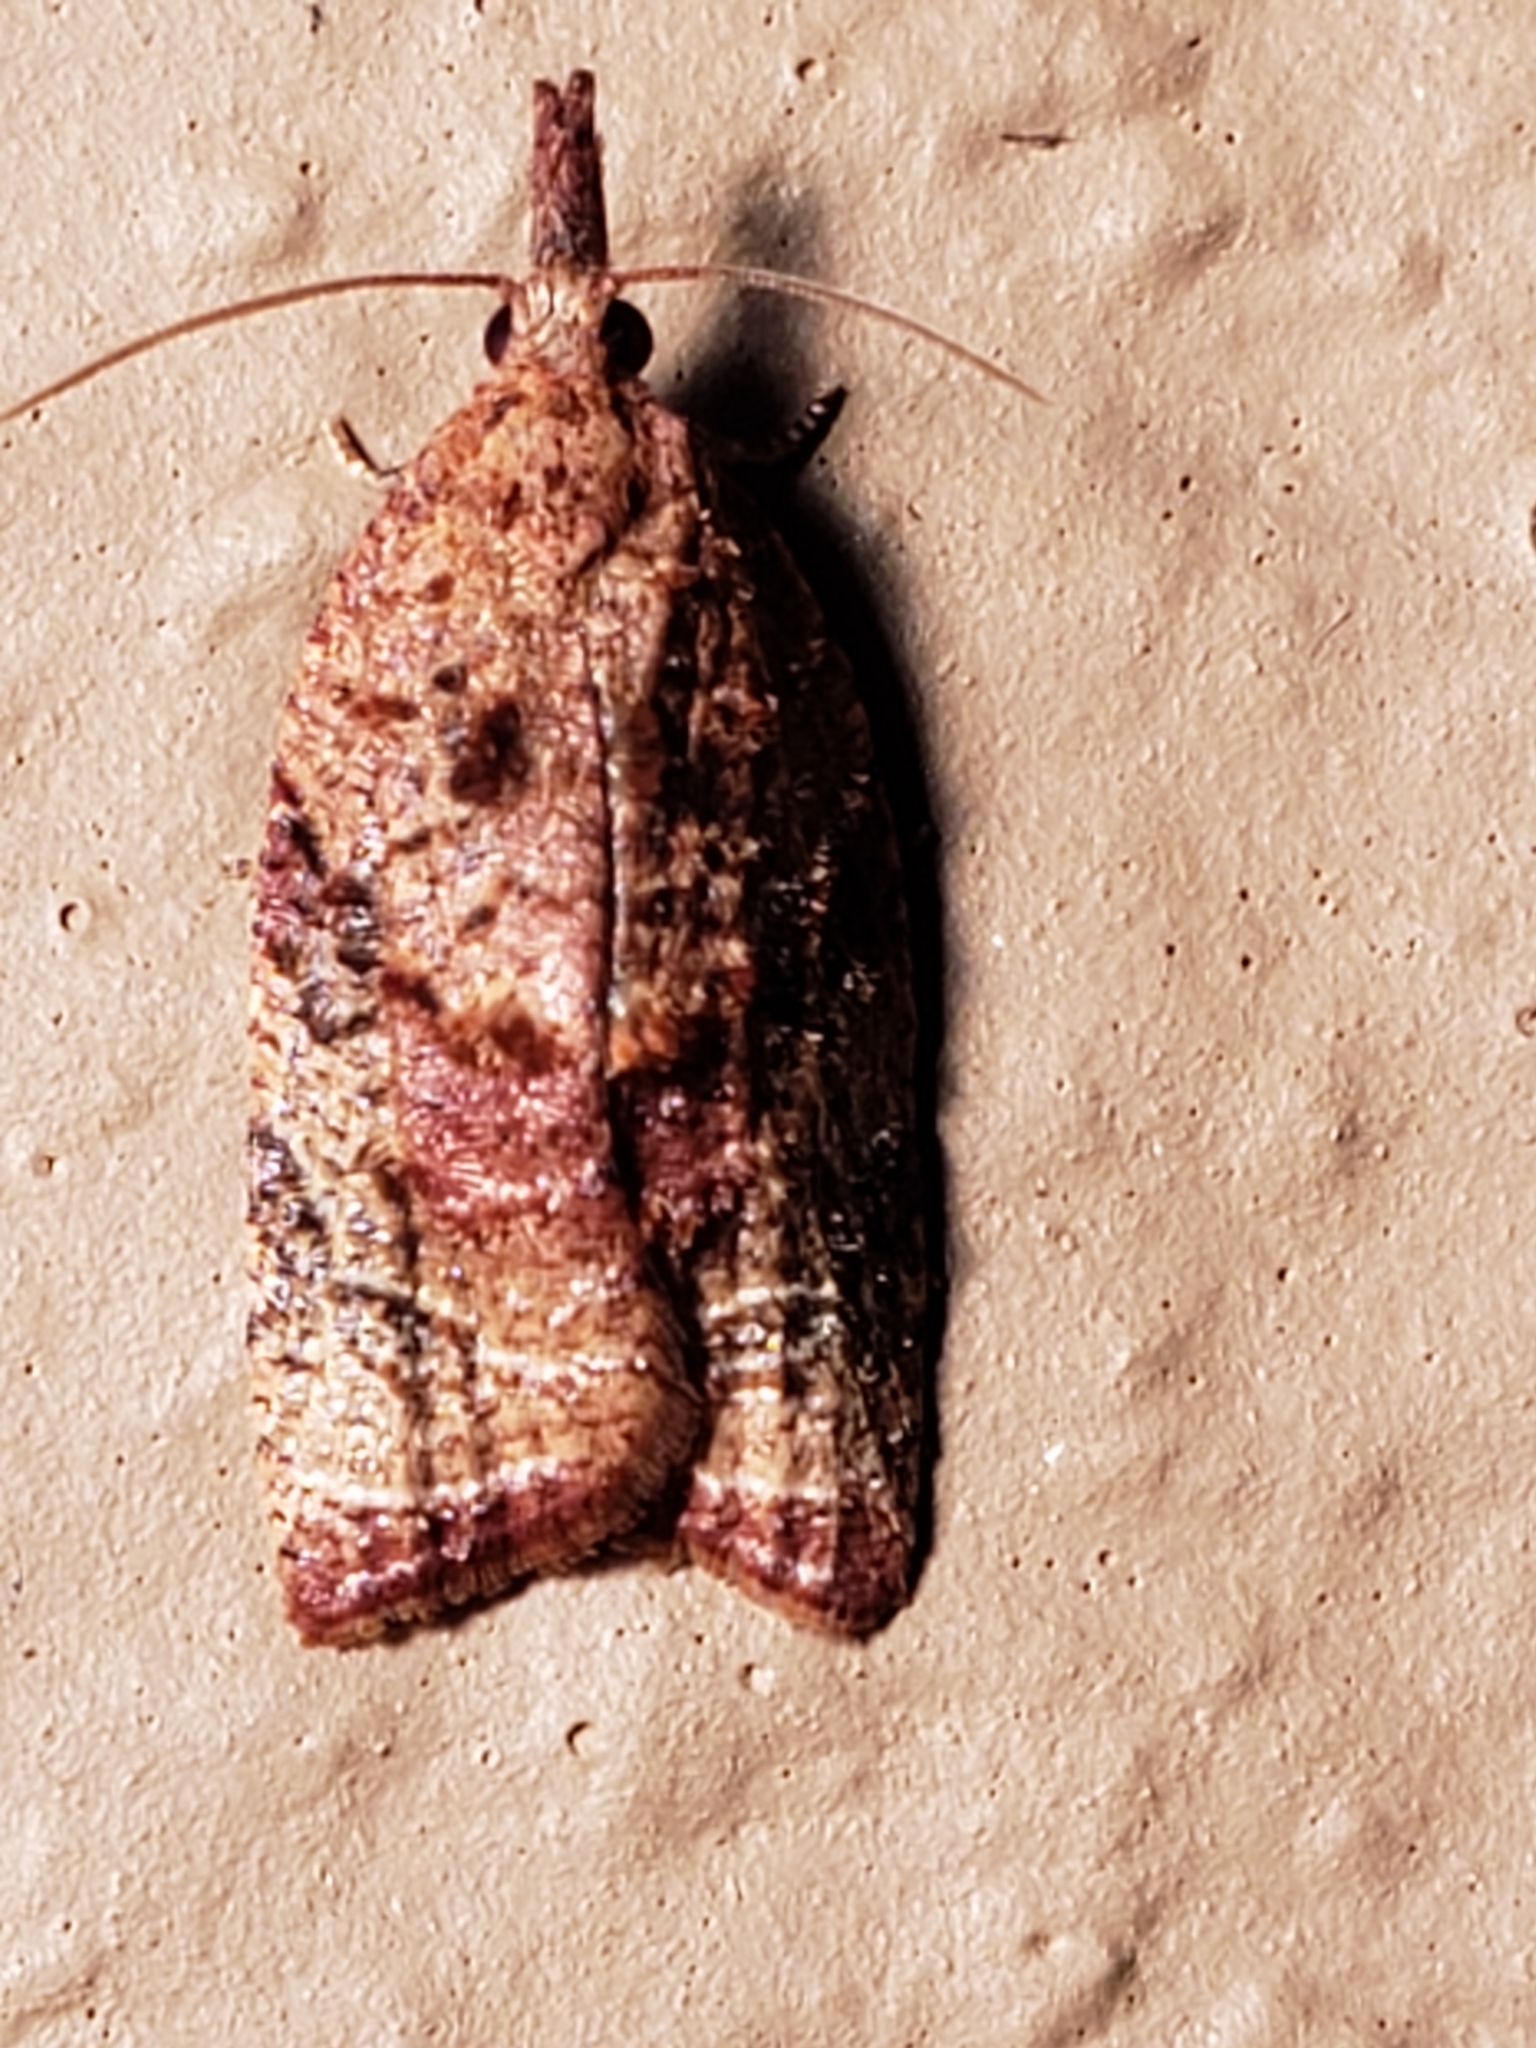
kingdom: Animalia
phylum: Arthropoda
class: Insecta
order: Lepidoptera
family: Tortricidae
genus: Platynota
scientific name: Platynota idaeusalis
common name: Tufted apple bud moth
